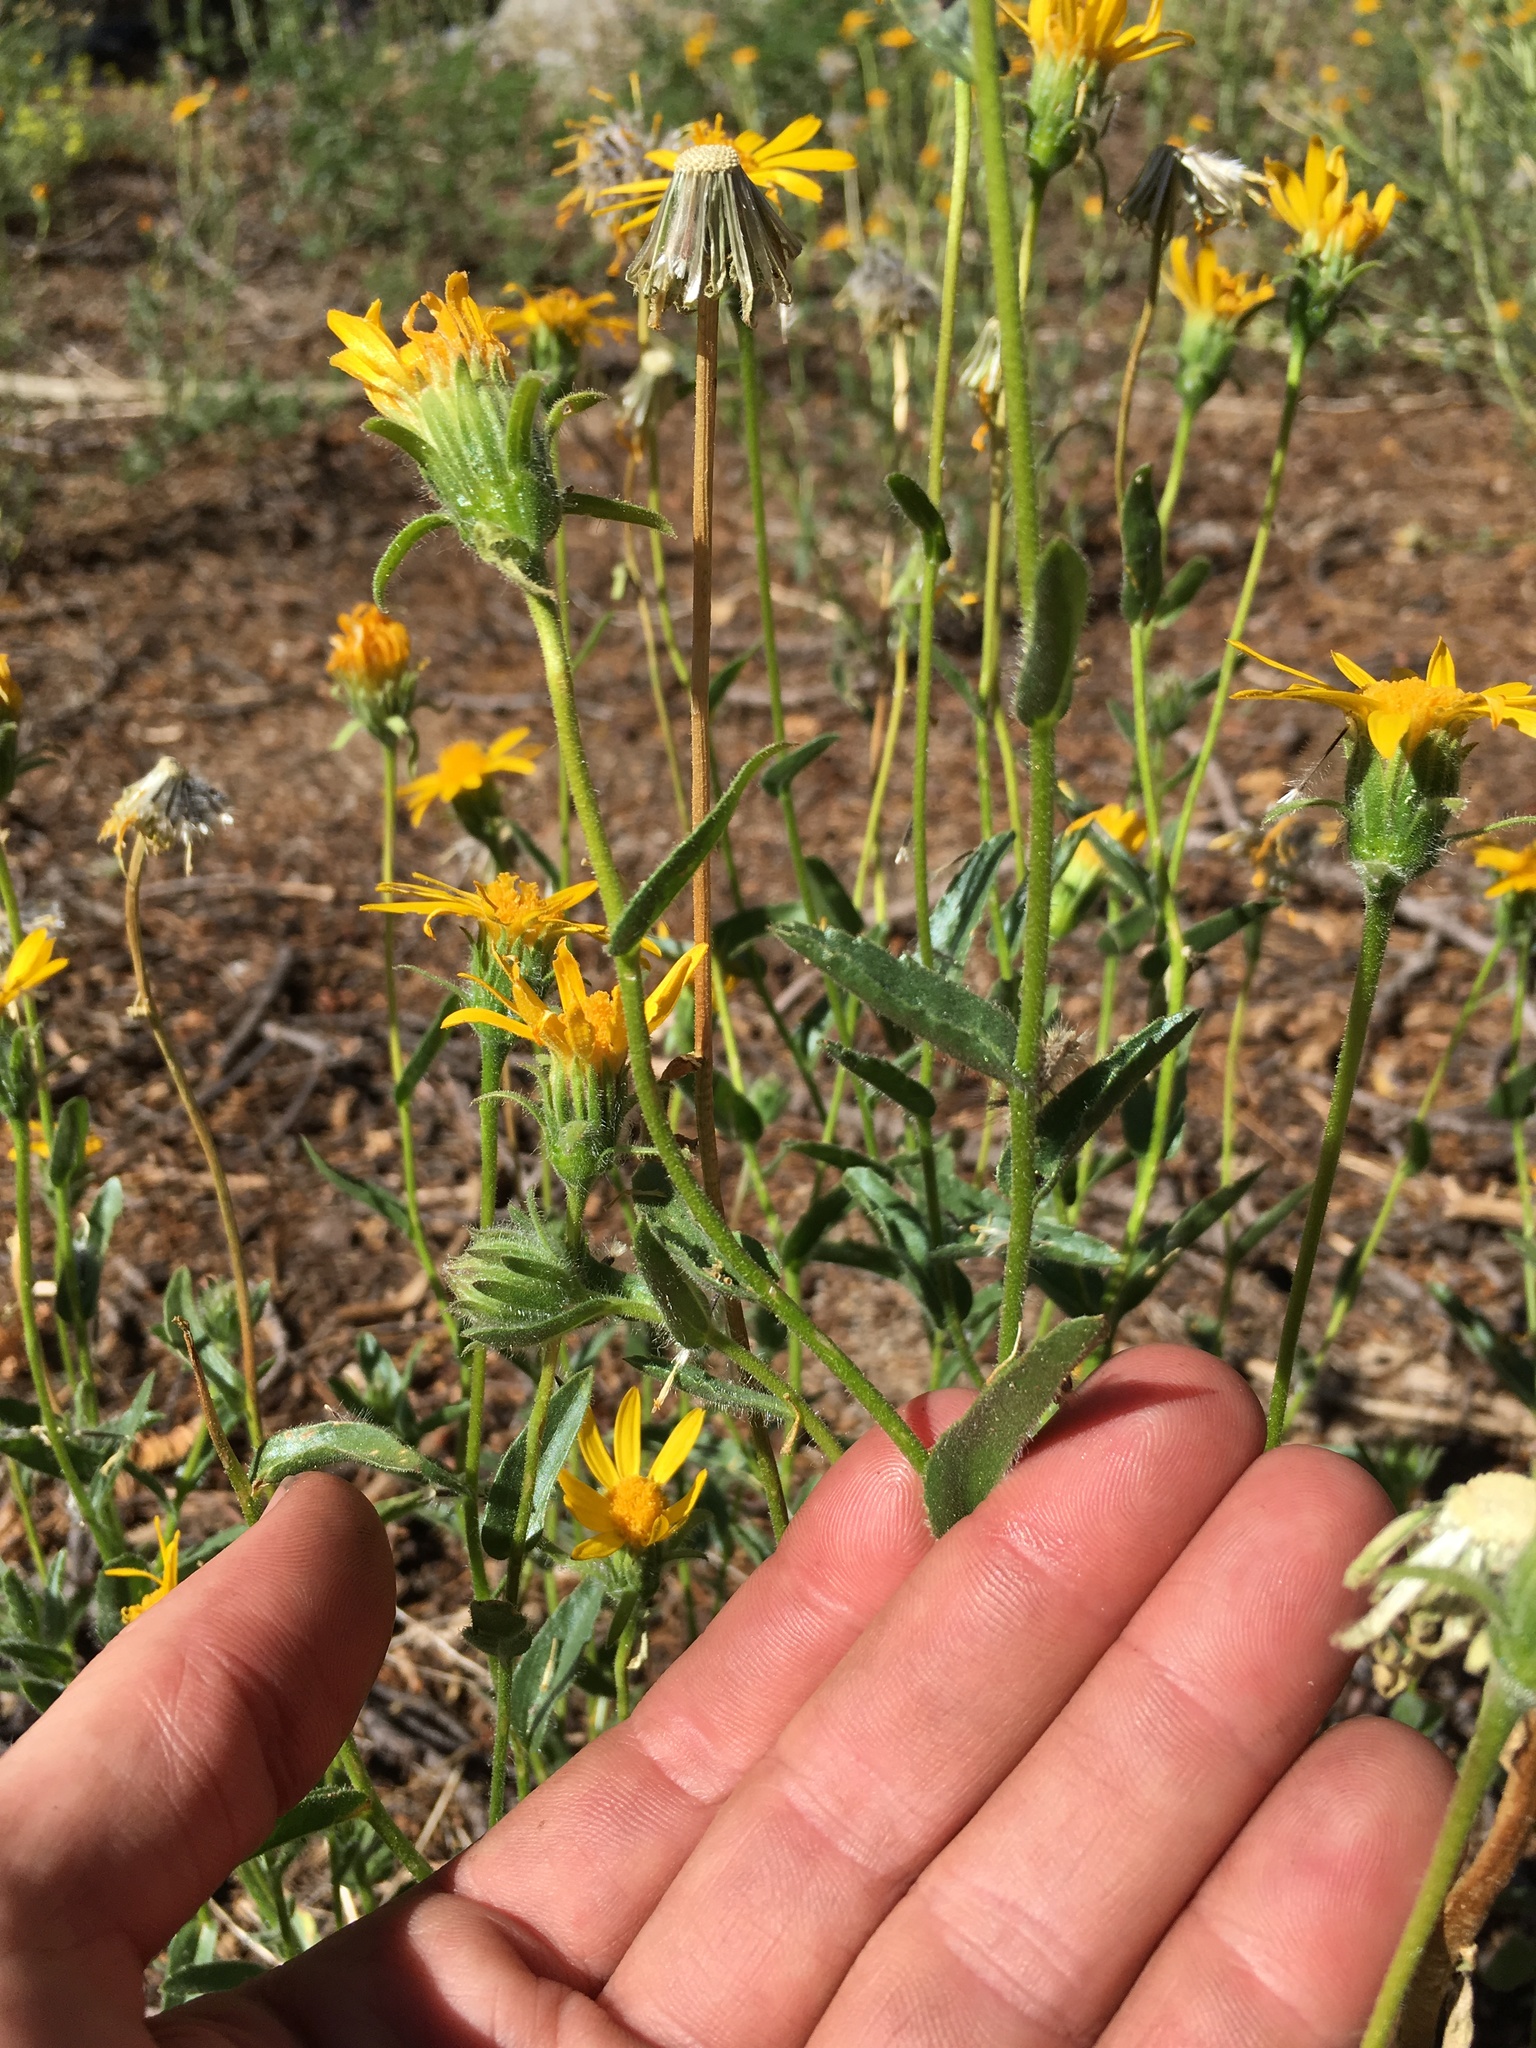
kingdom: Plantae
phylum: Tracheophyta
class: Magnoliopsida
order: Asterales
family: Asteraceae
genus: Hulsea
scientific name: Hulsea brevifolia
